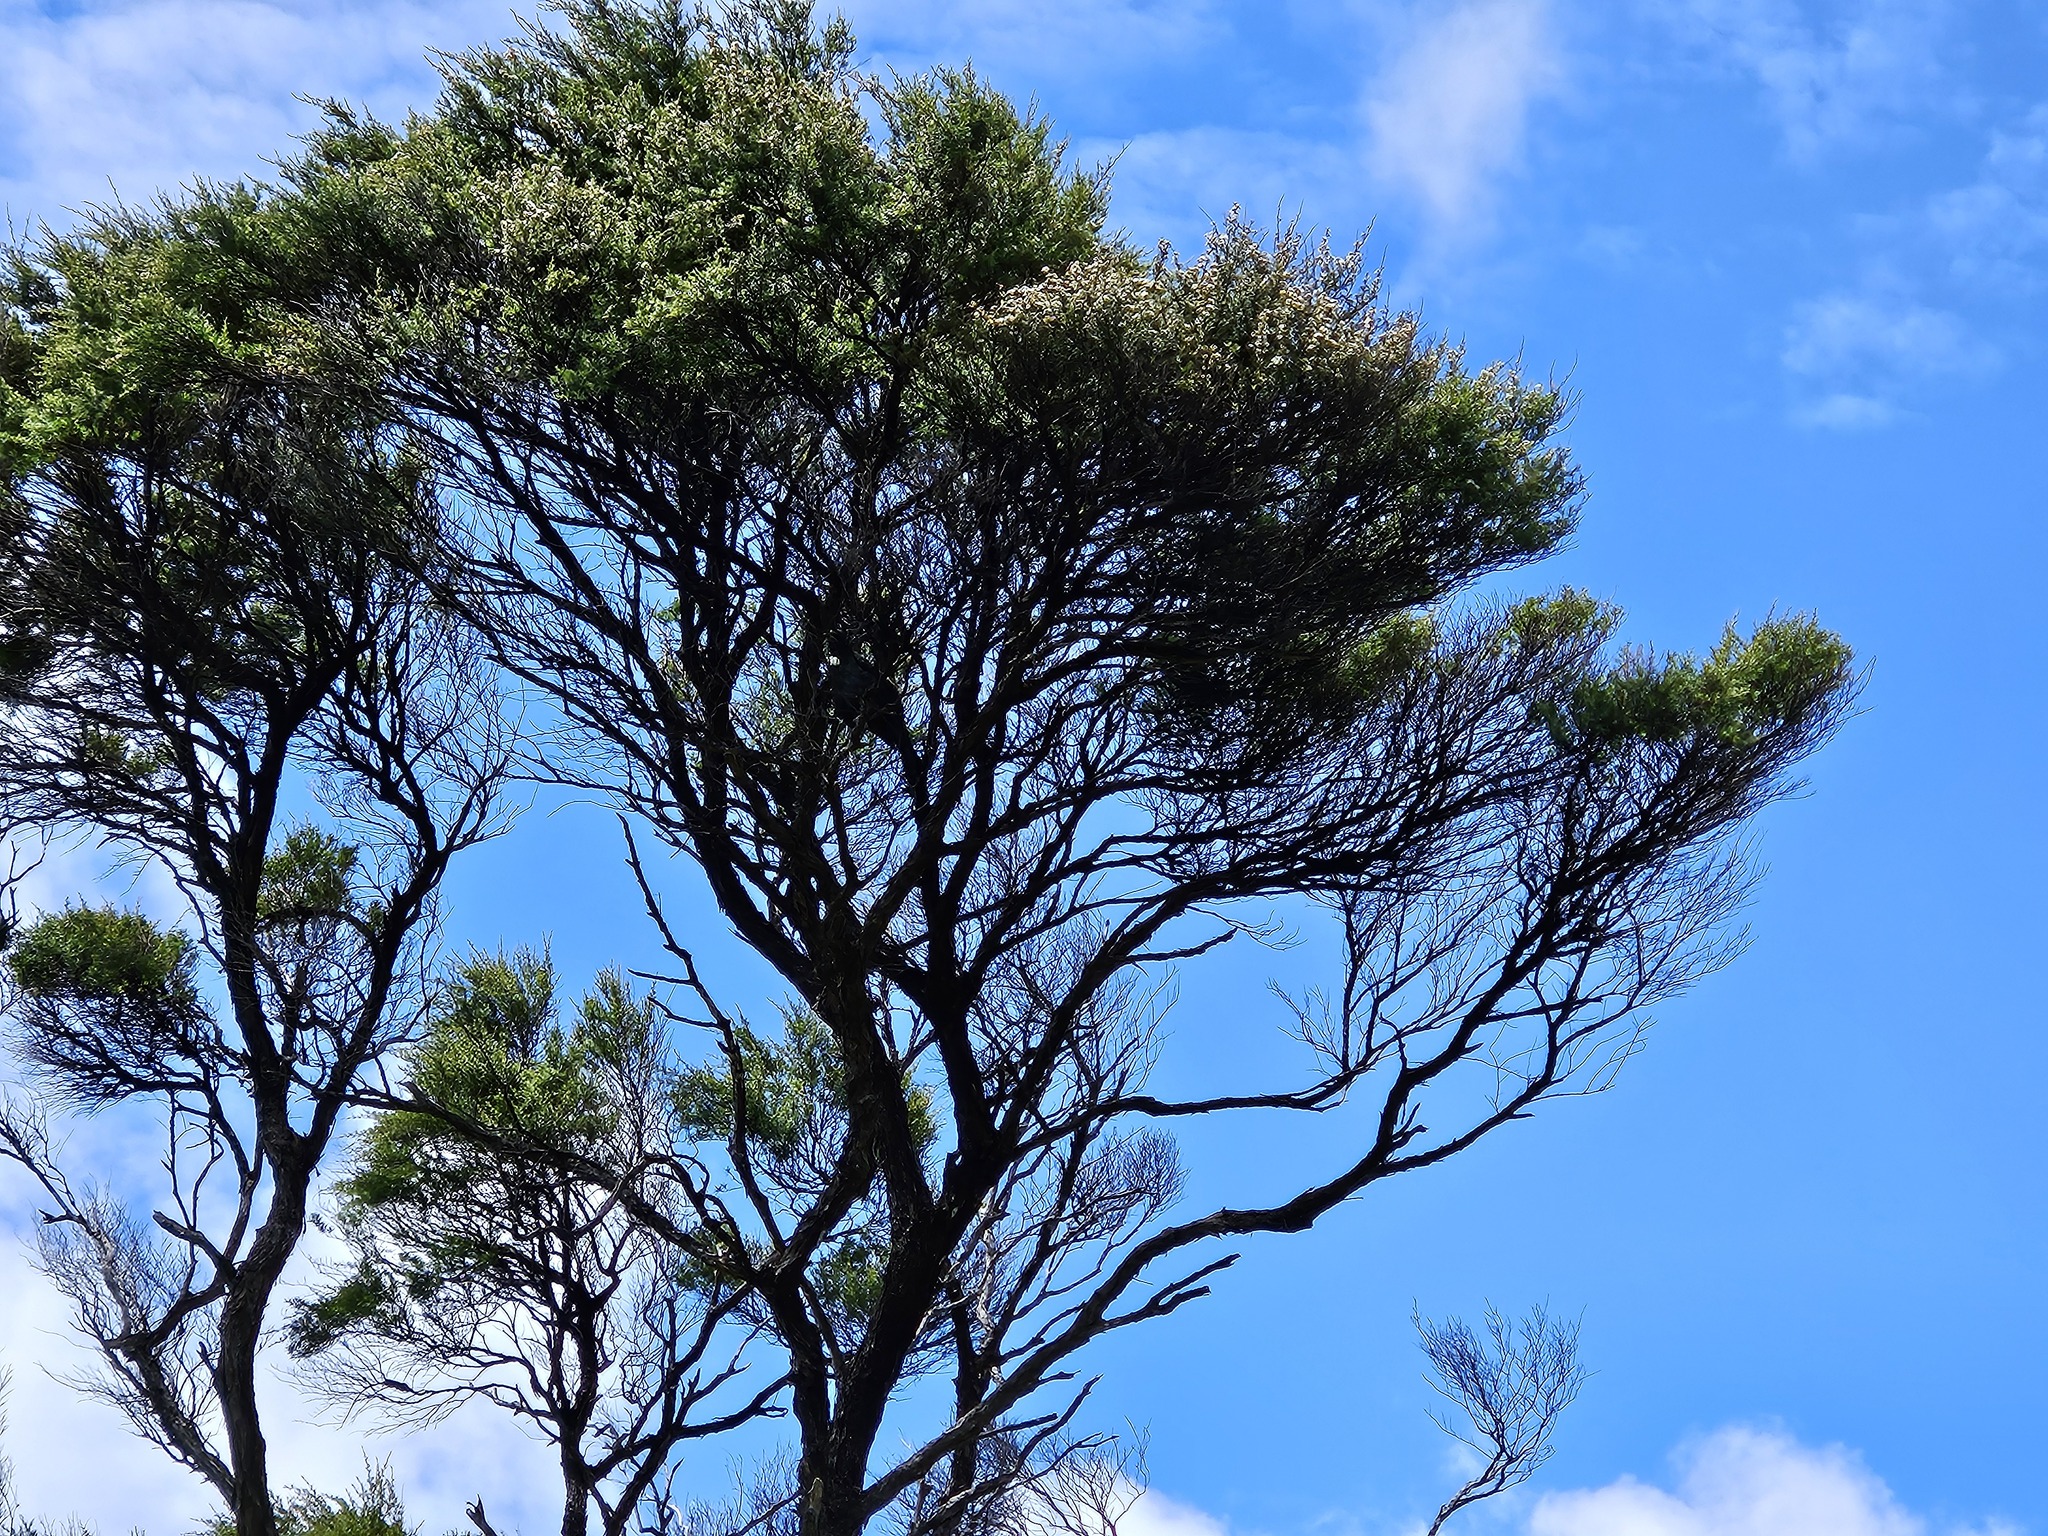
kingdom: Animalia
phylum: Chordata
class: Aves
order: Passeriformes
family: Meliphagidae
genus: Prosthemadera
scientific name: Prosthemadera novaeseelandiae
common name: Tui
